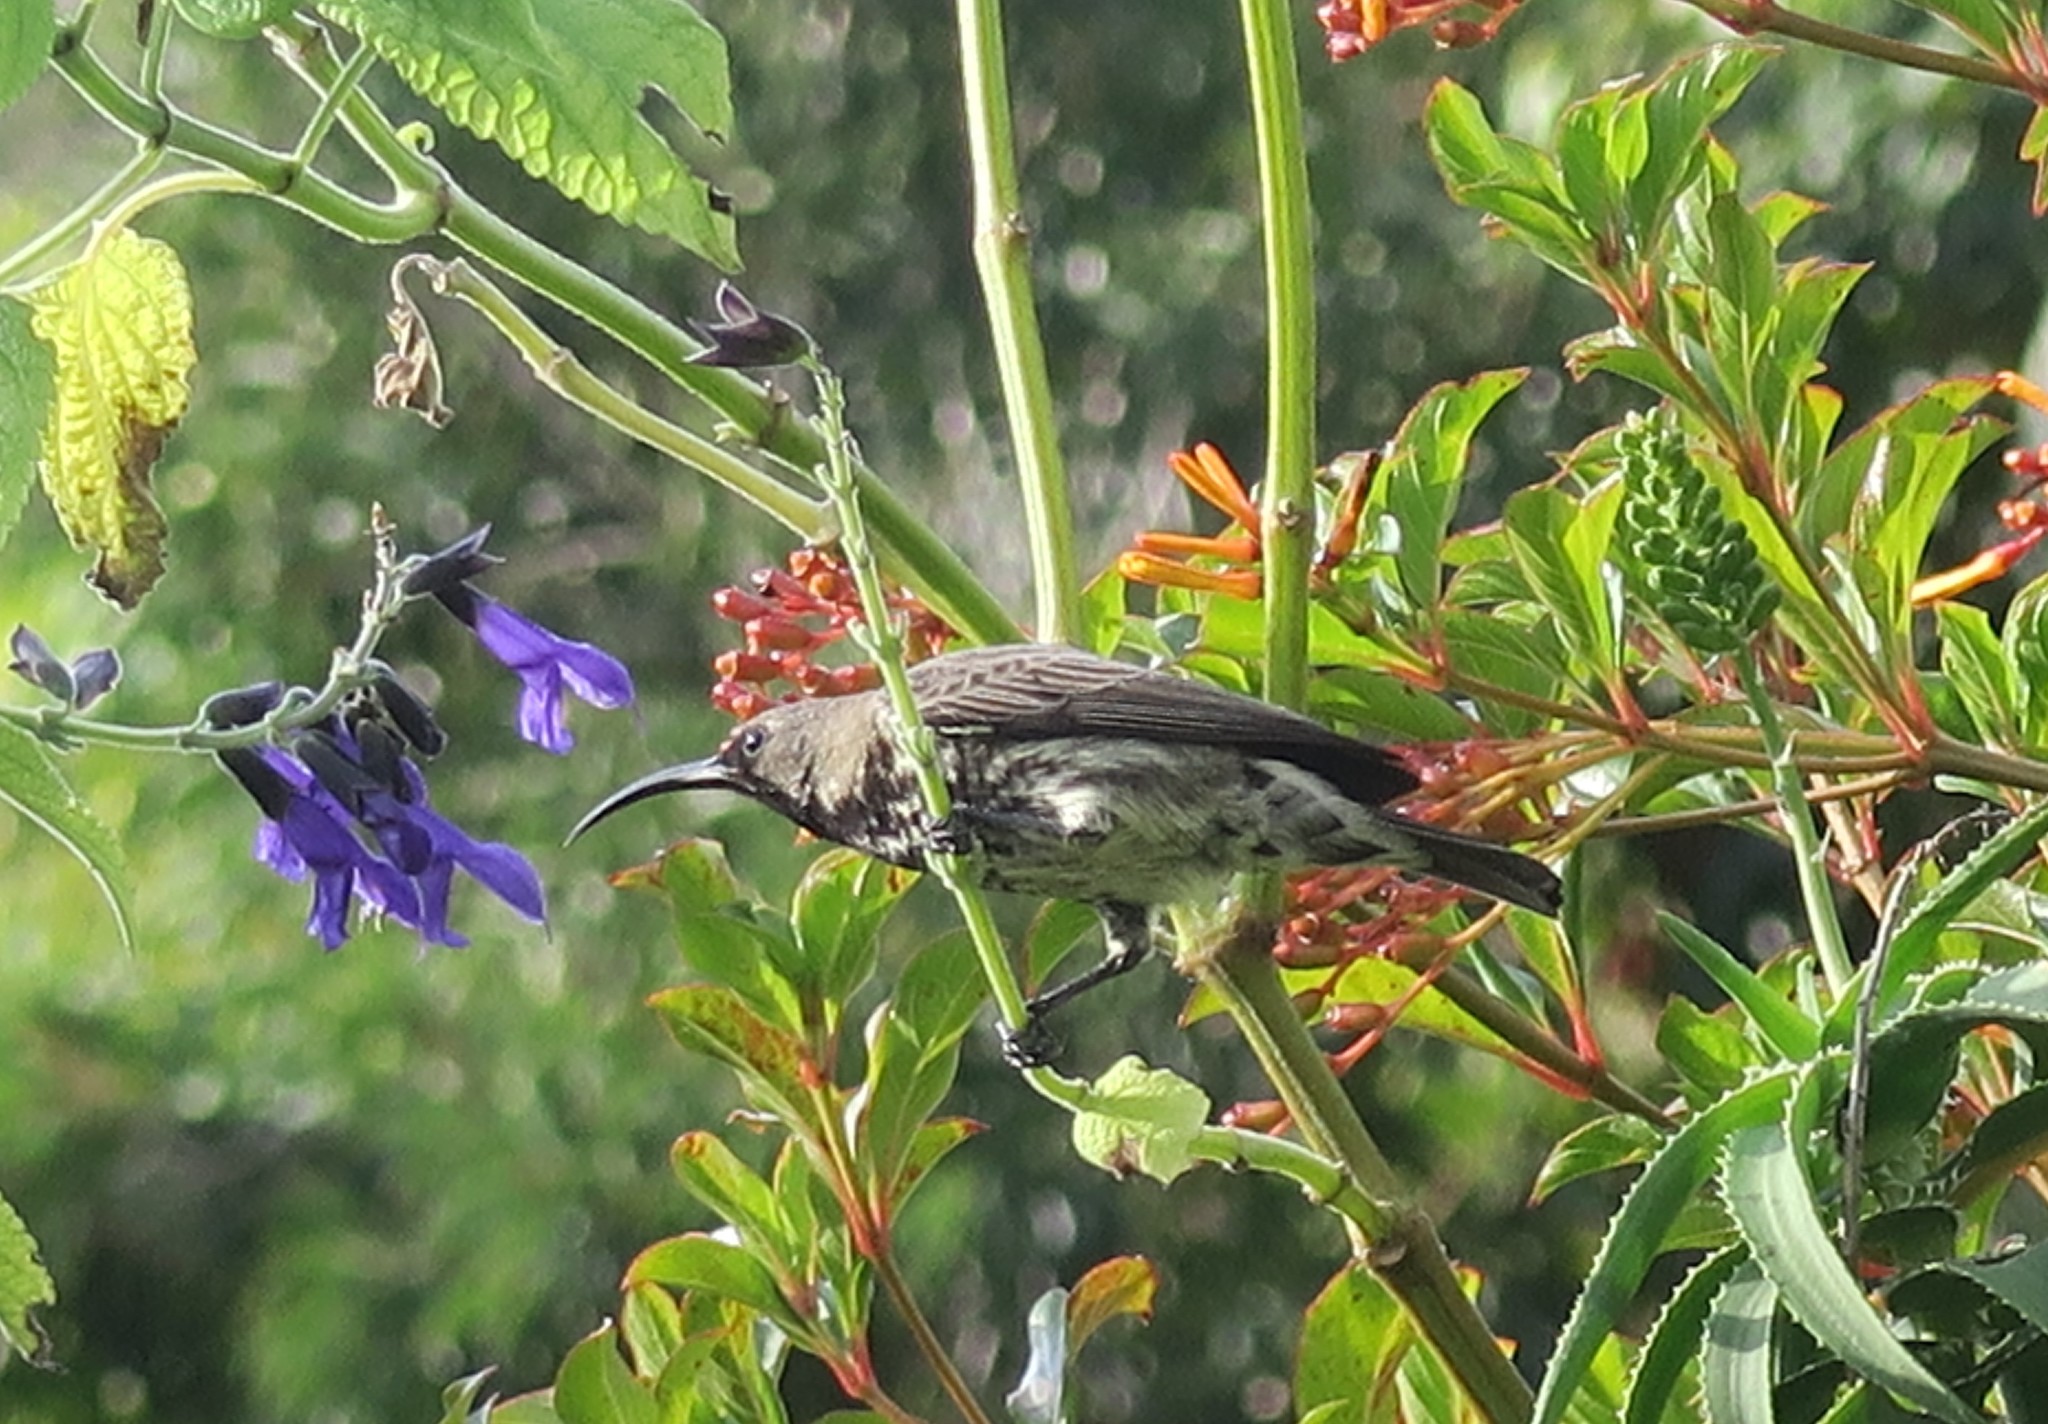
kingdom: Animalia
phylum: Chordata
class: Aves
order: Passeriformes
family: Nectariniidae
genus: Chalcomitra
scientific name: Chalcomitra amethystina
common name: Amethyst sunbird
